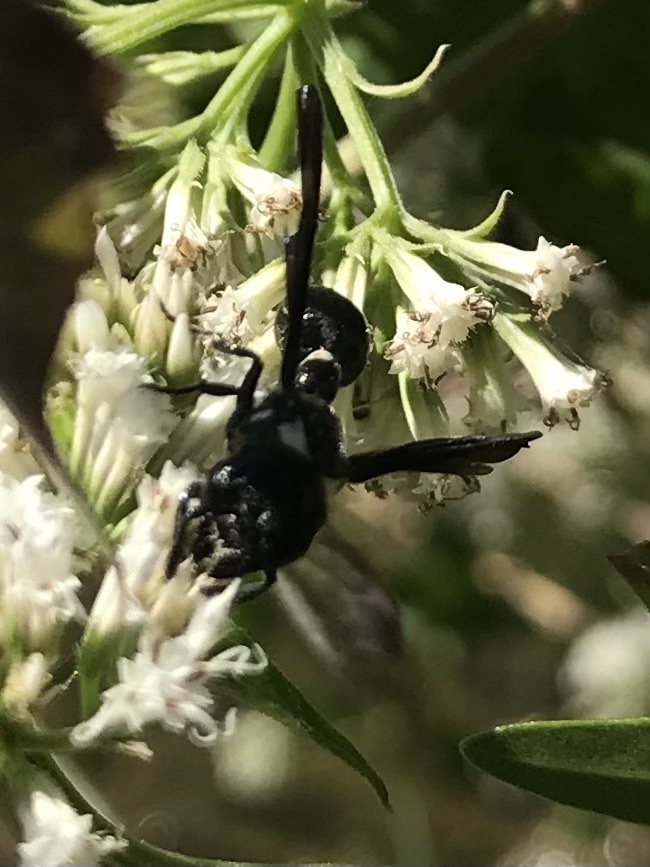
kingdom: Animalia
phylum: Arthropoda
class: Insecta
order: Hymenoptera
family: Eumenidae
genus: Zethus
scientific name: Zethus spinipes
